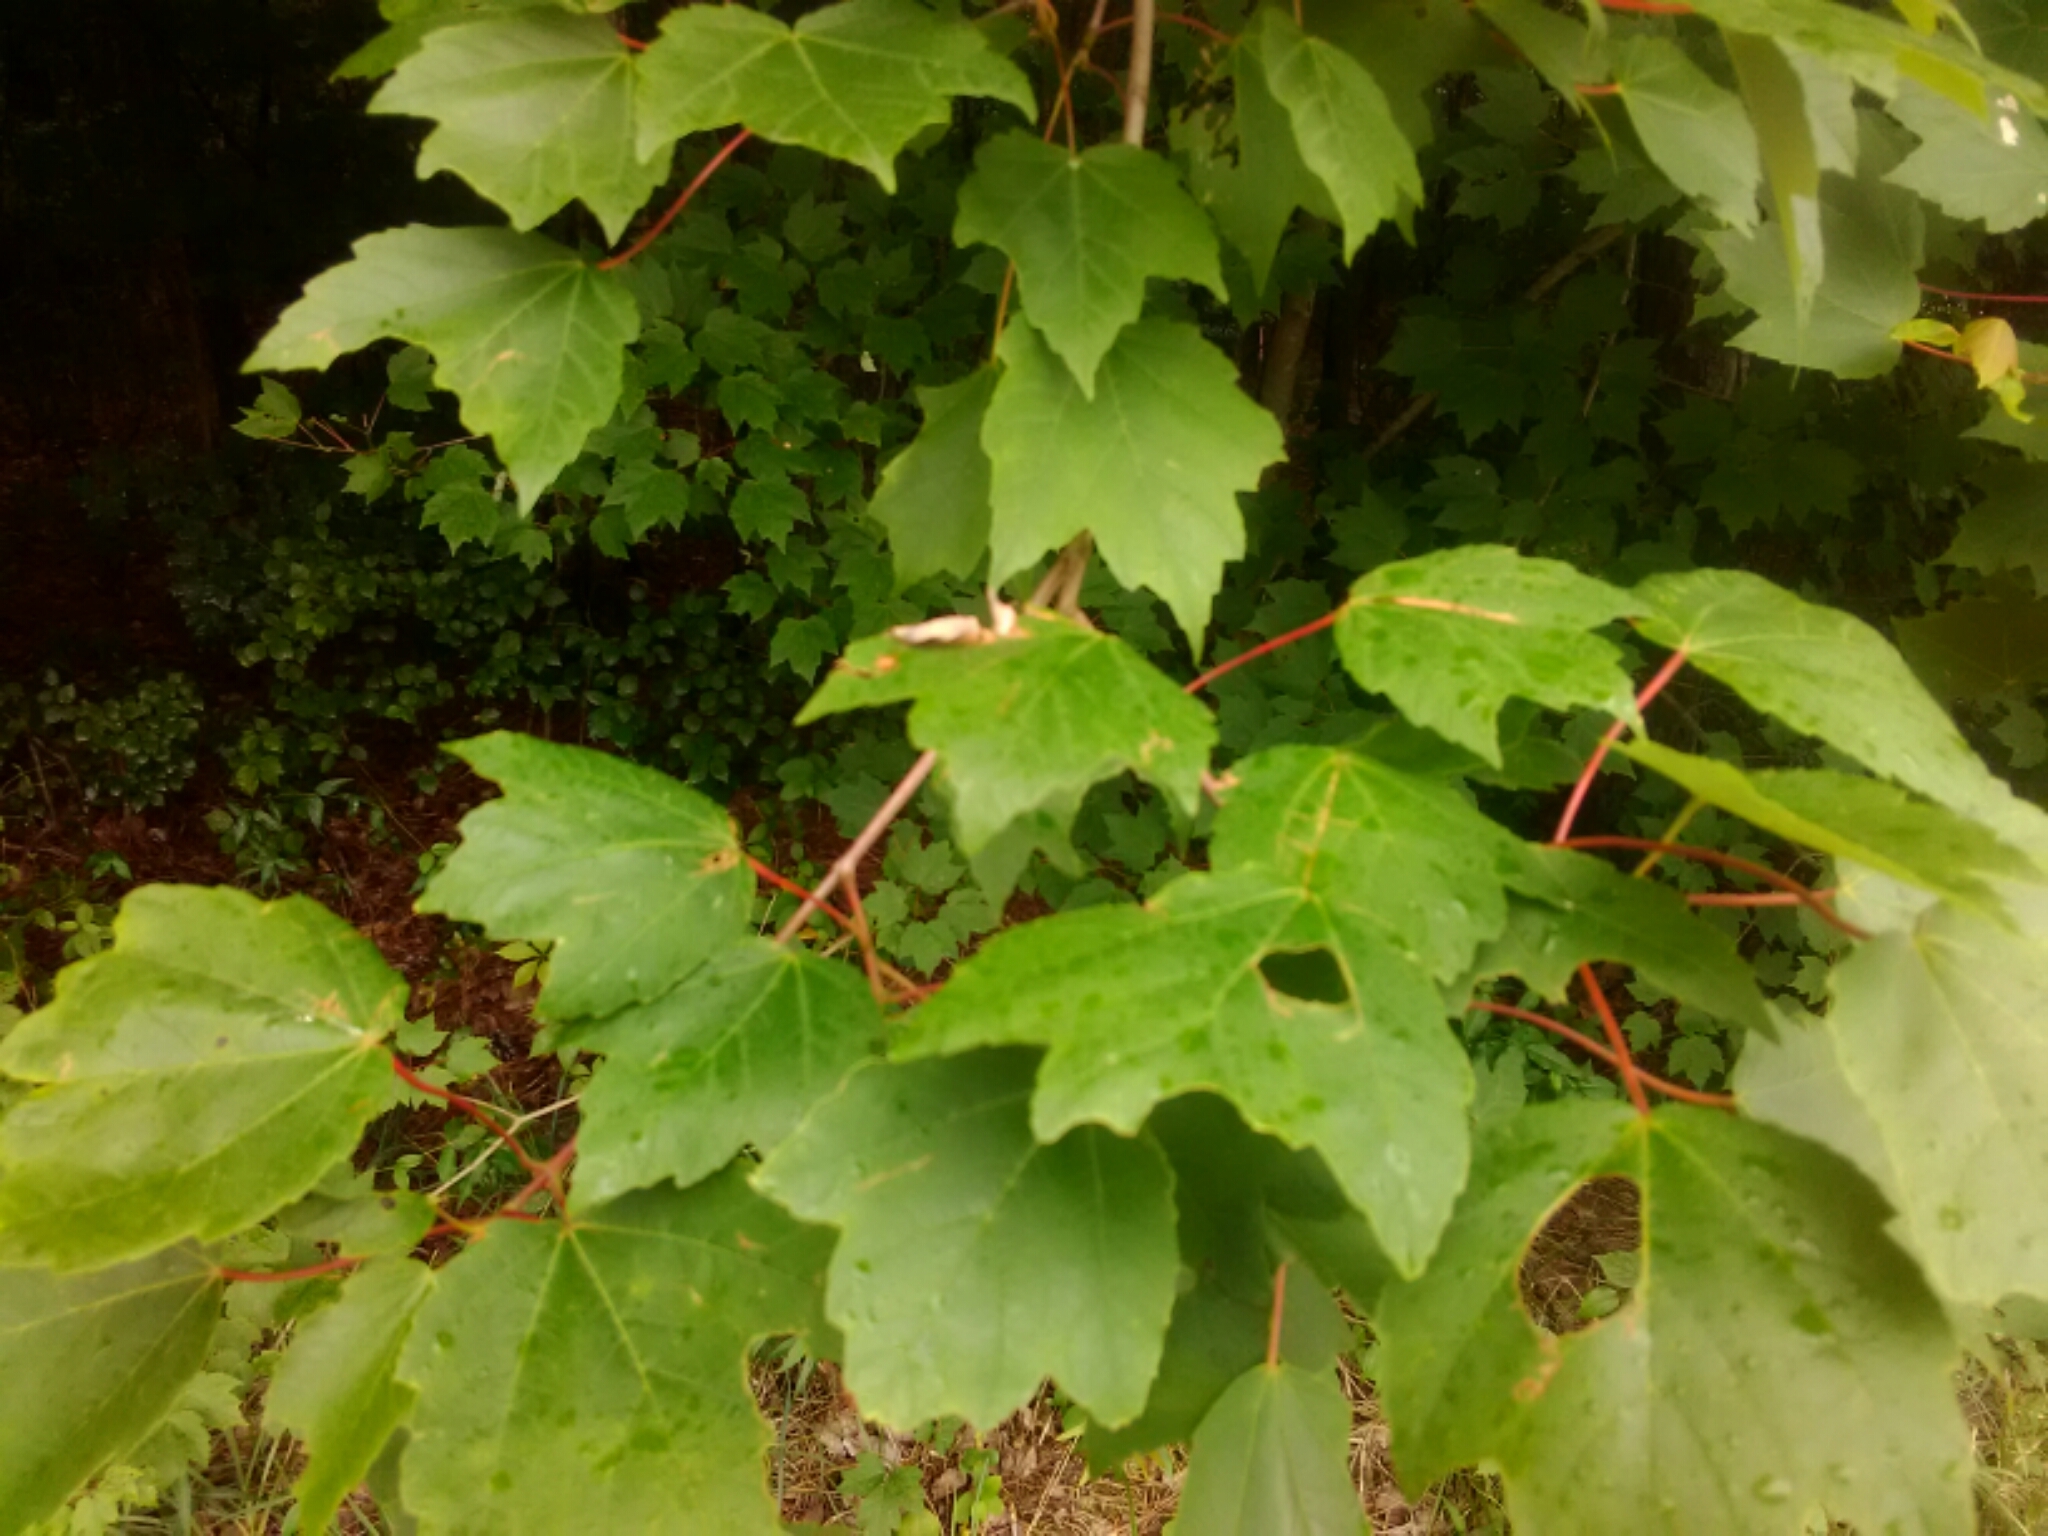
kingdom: Plantae
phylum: Tracheophyta
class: Magnoliopsida
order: Sapindales
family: Sapindaceae
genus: Acer
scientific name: Acer rubrum
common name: Red maple
